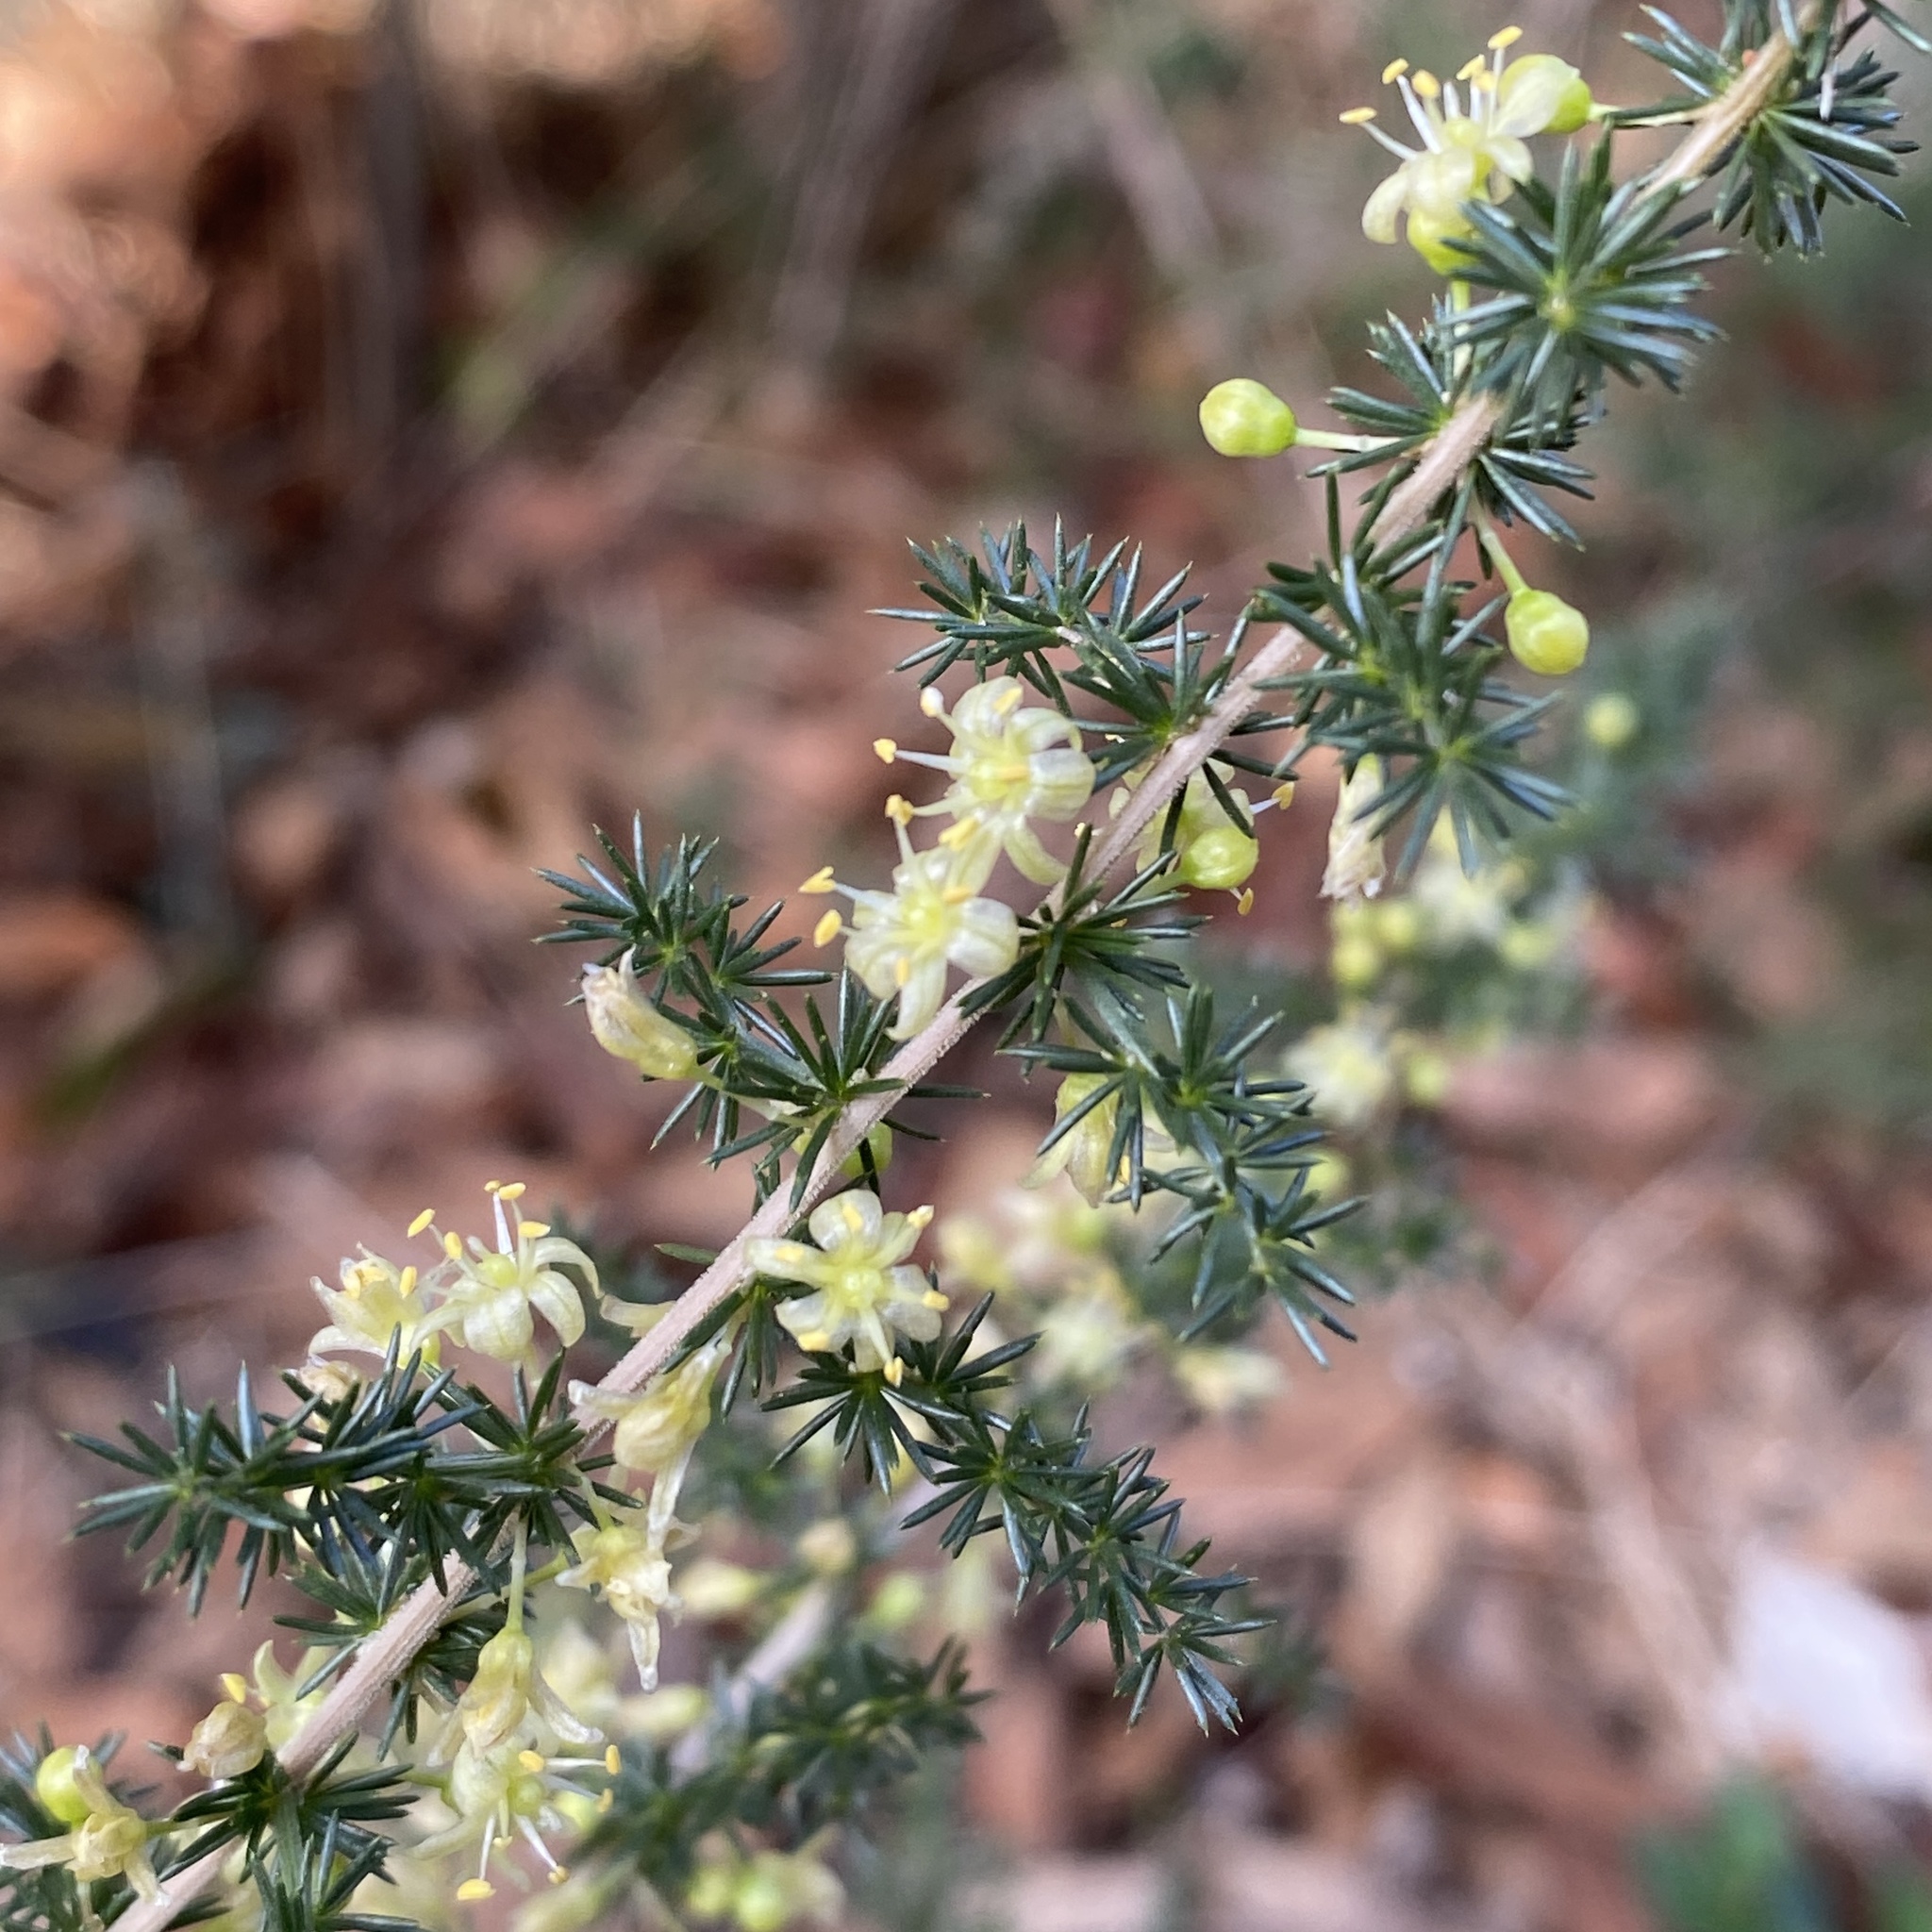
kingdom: Plantae
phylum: Tracheophyta
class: Liliopsida
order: Asparagales
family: Asparagaceae
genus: Asparagus
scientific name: Asparagus acutifolius
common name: Wild asparagus
